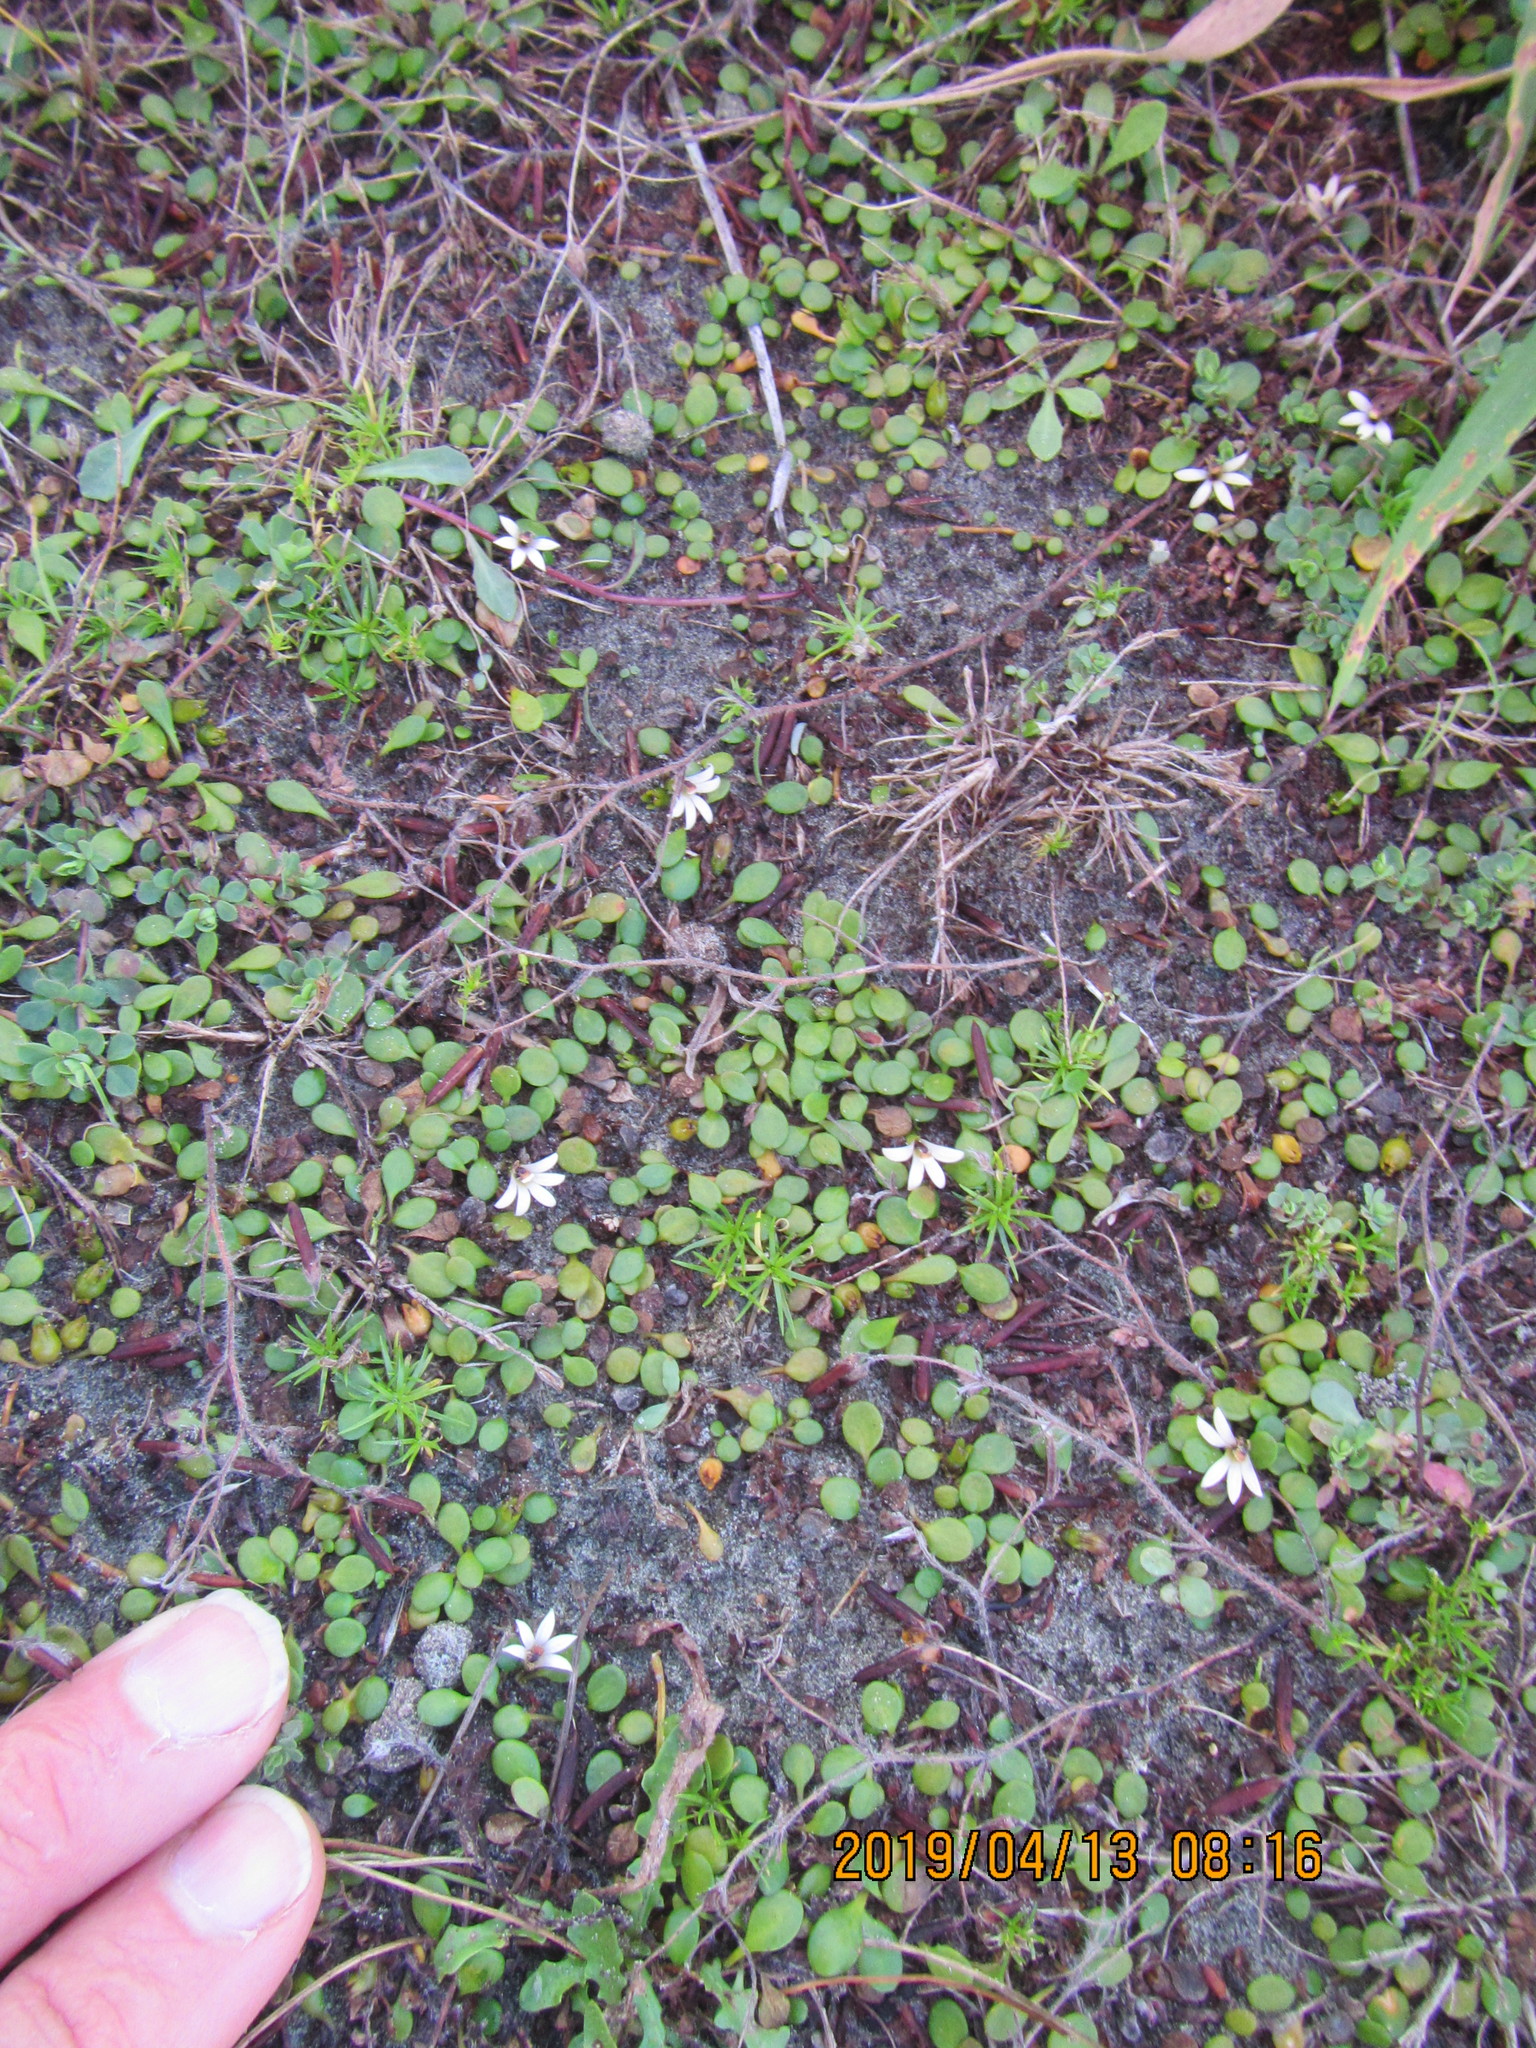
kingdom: Plantae
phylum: Tracheophyta
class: Magnoliopsida
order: Asterales
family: Goodeniaceae
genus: Goodenia
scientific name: Goodenia heenanii
